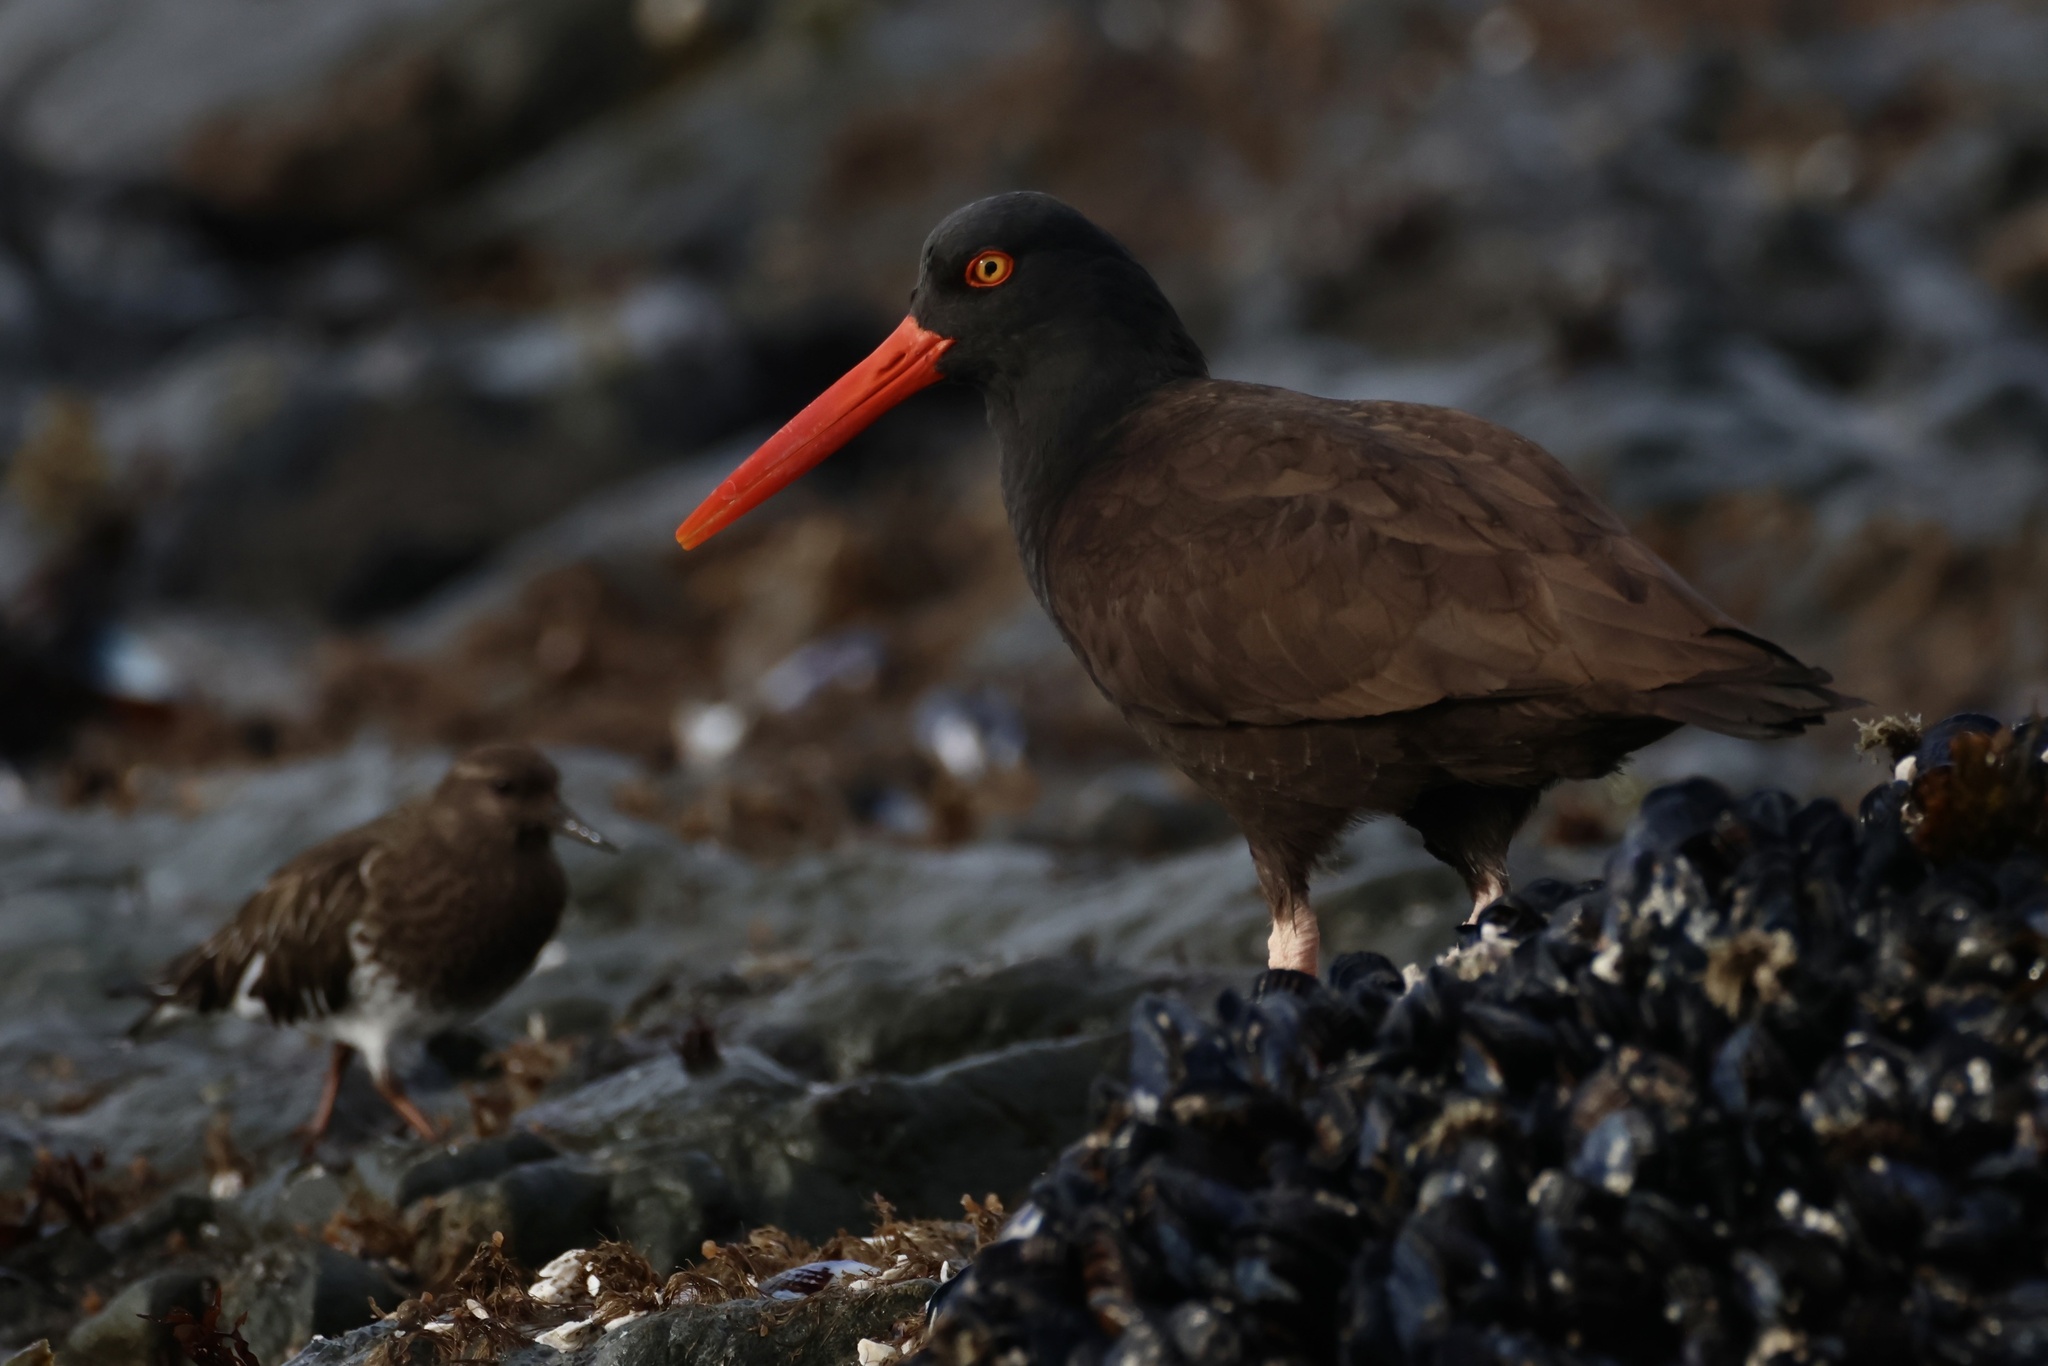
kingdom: Animalia
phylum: Chordata
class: Aves
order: Charadriiformes
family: Haematopodidae
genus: Haematopus
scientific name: Haematopus bachmani
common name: Black oystercatcher
